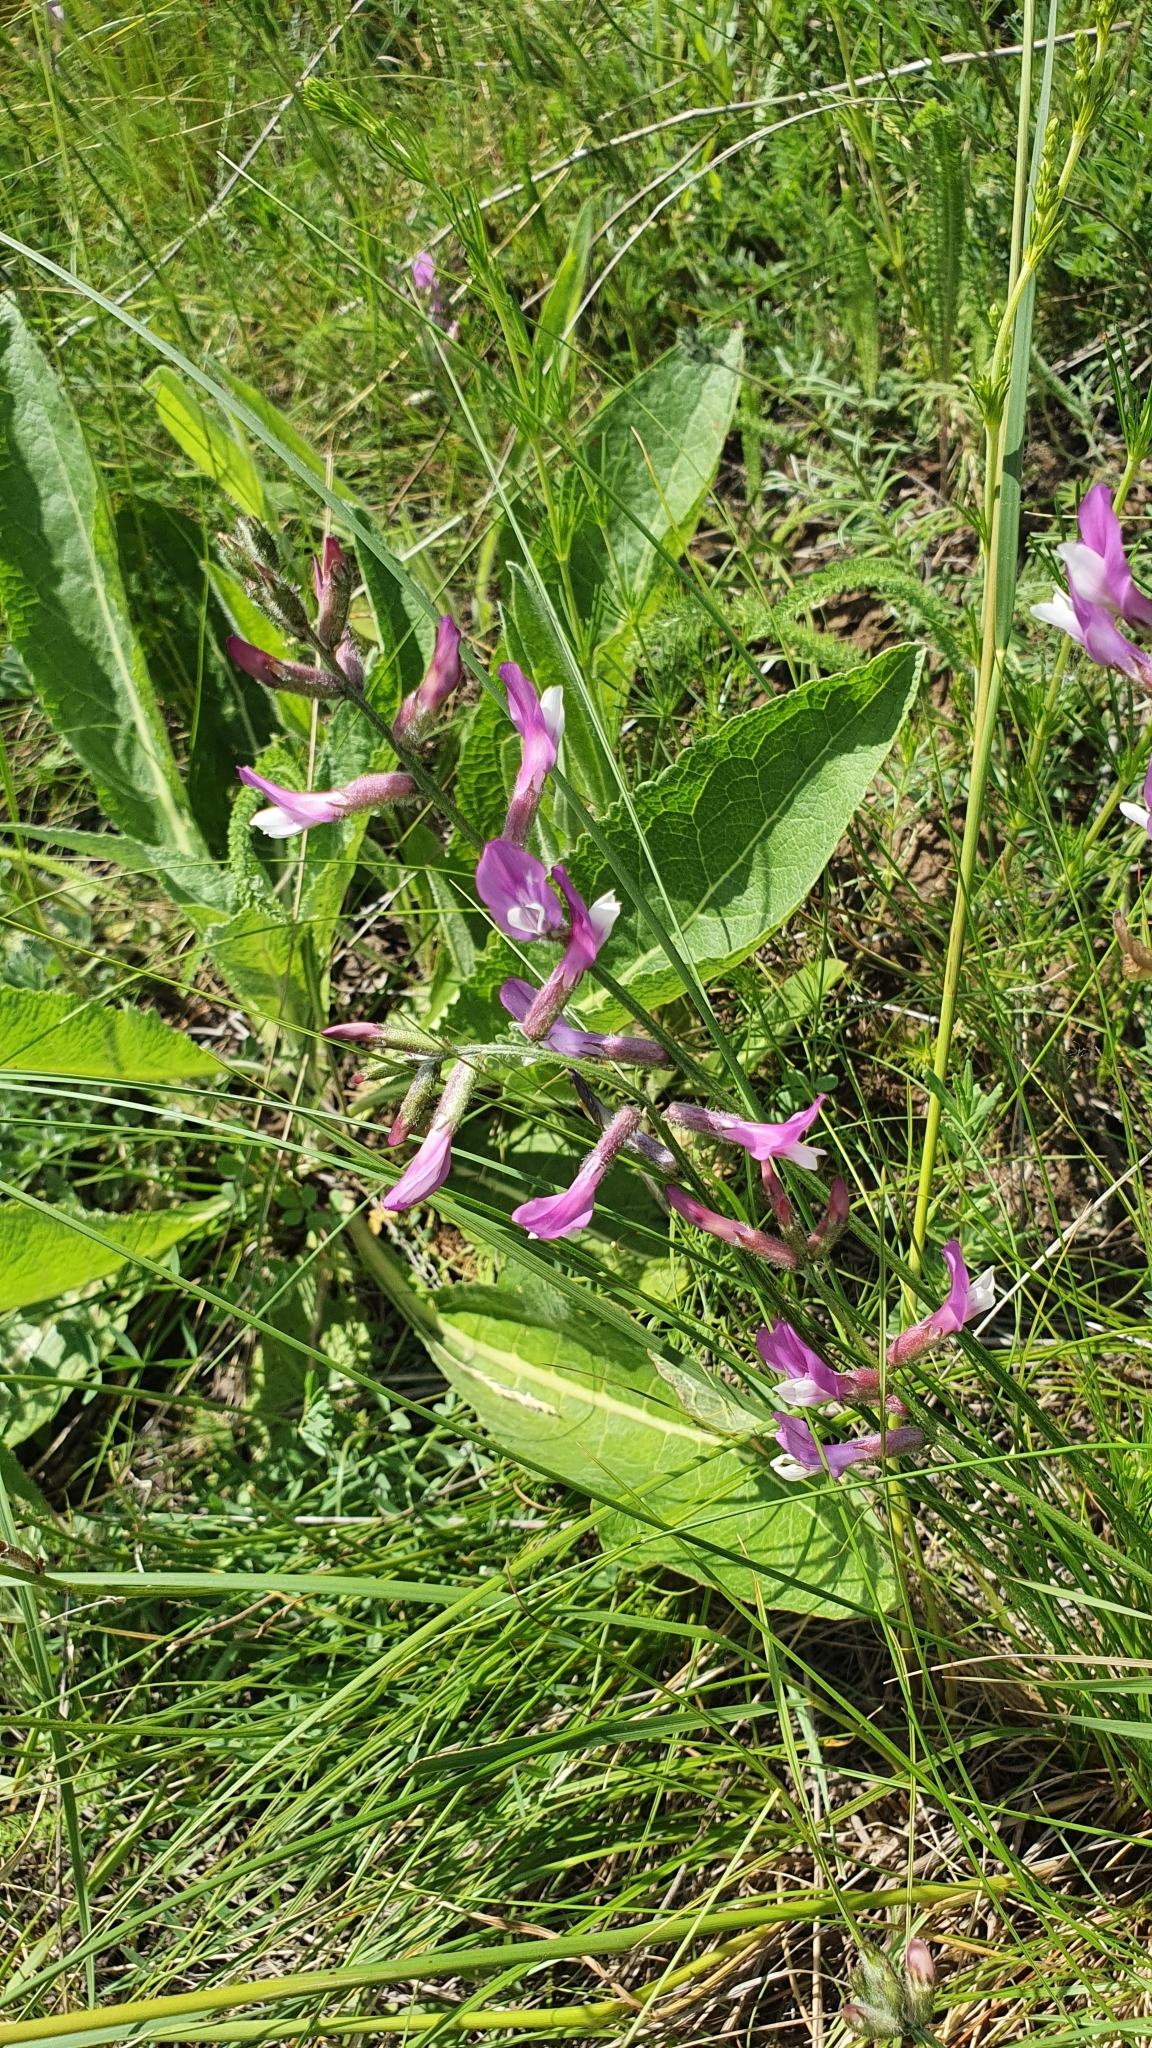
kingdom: Plantae
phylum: Tracheophyta
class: Magnoliopsida
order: Fabales
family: Fabaceae
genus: Astragalus
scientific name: Astragalus macropus
